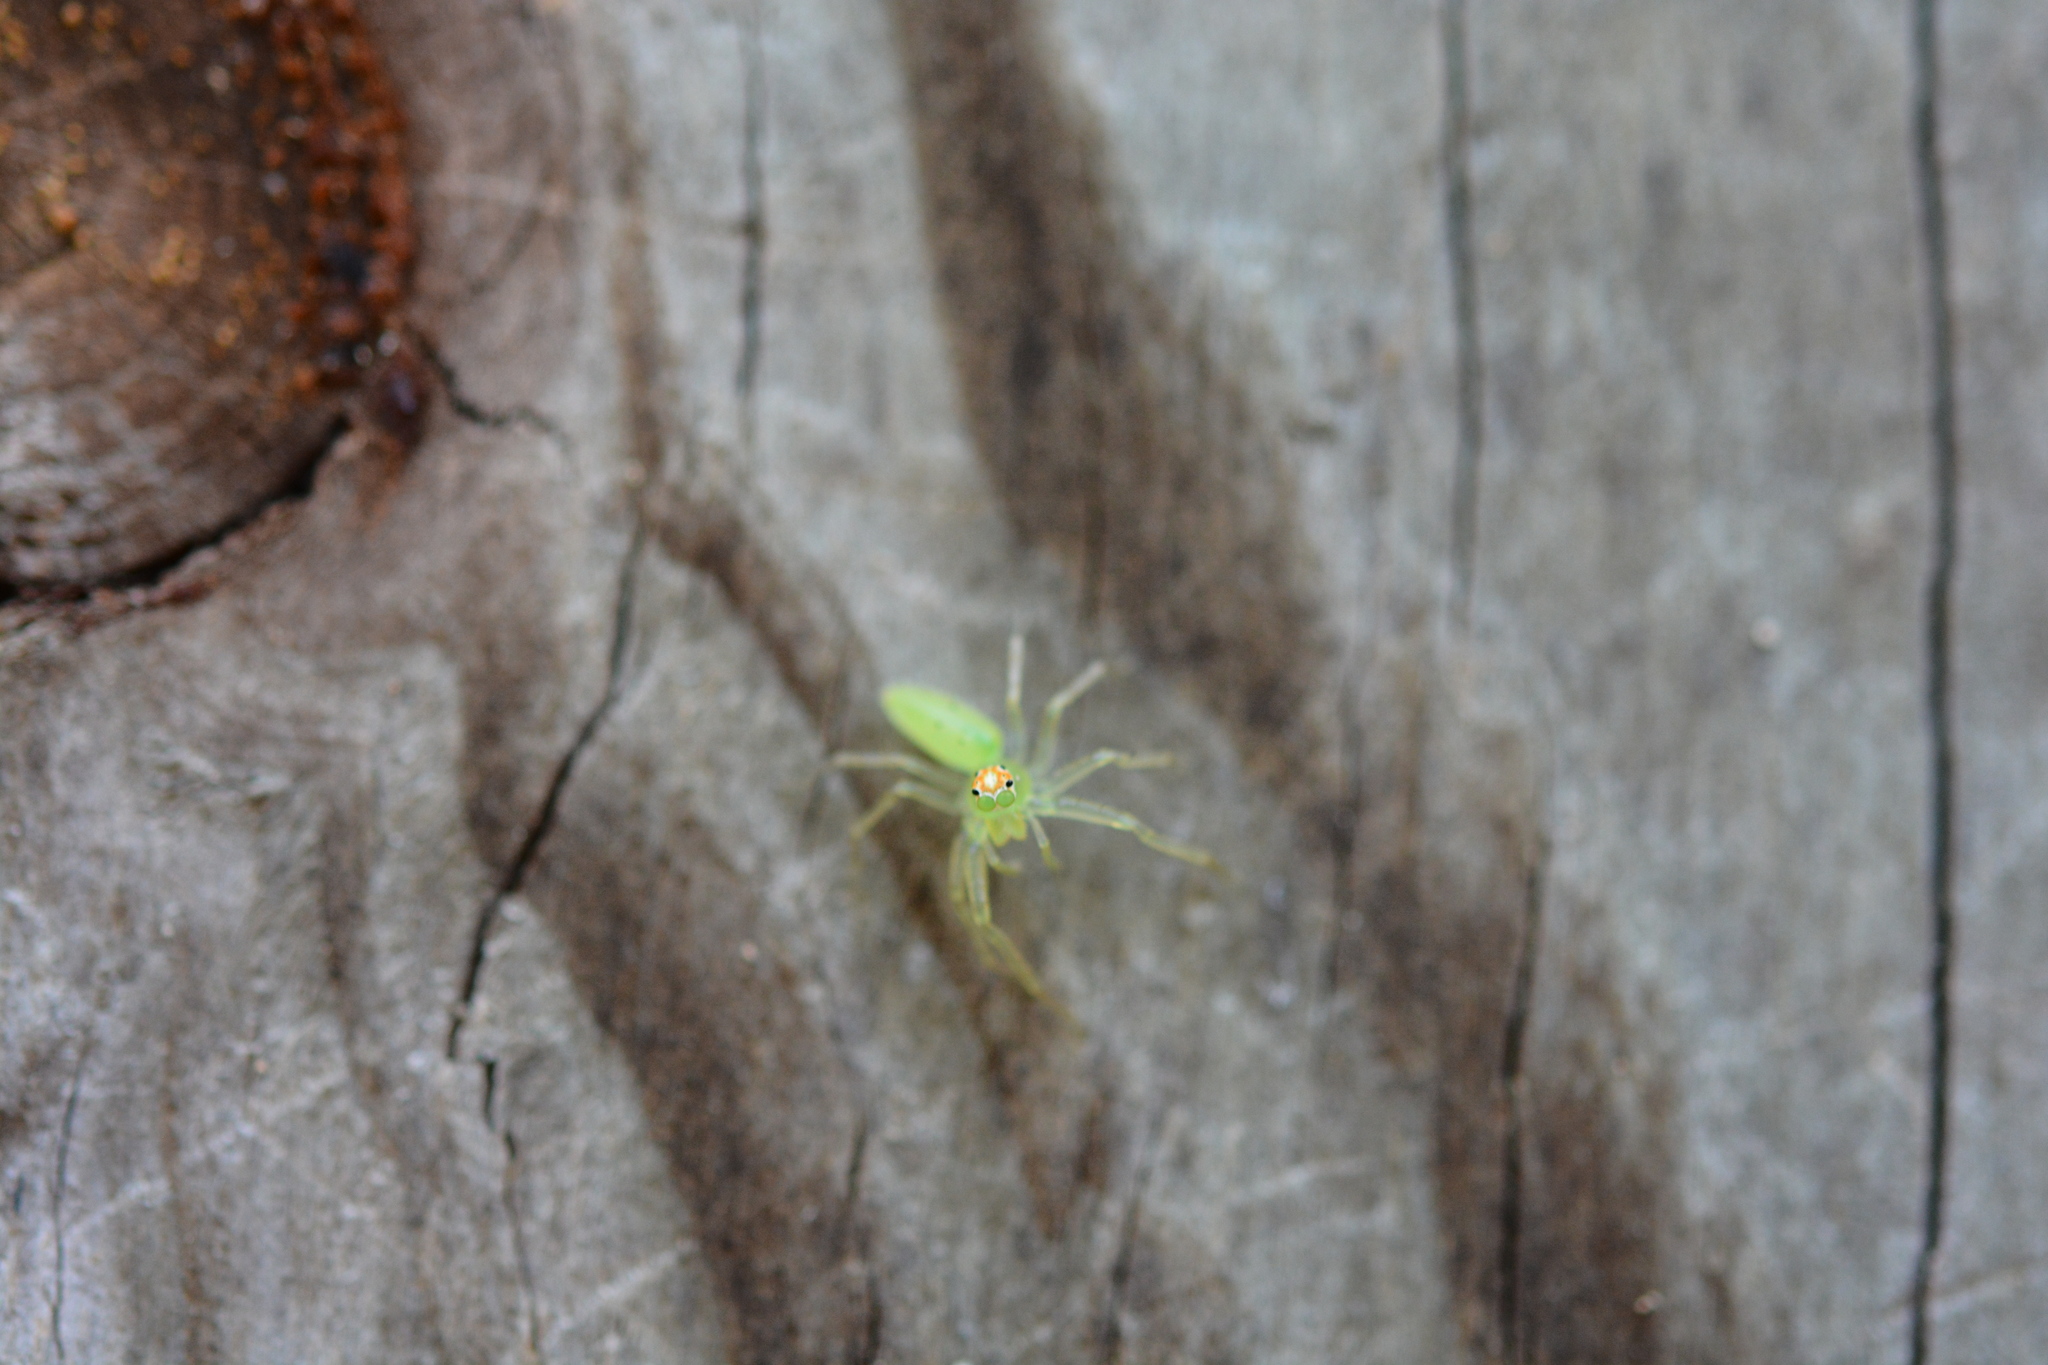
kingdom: Animalia
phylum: Arthropoda
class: Arachnida
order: Araneae
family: Salticidae
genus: Lyssomanes
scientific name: Lyssomanes viridis
